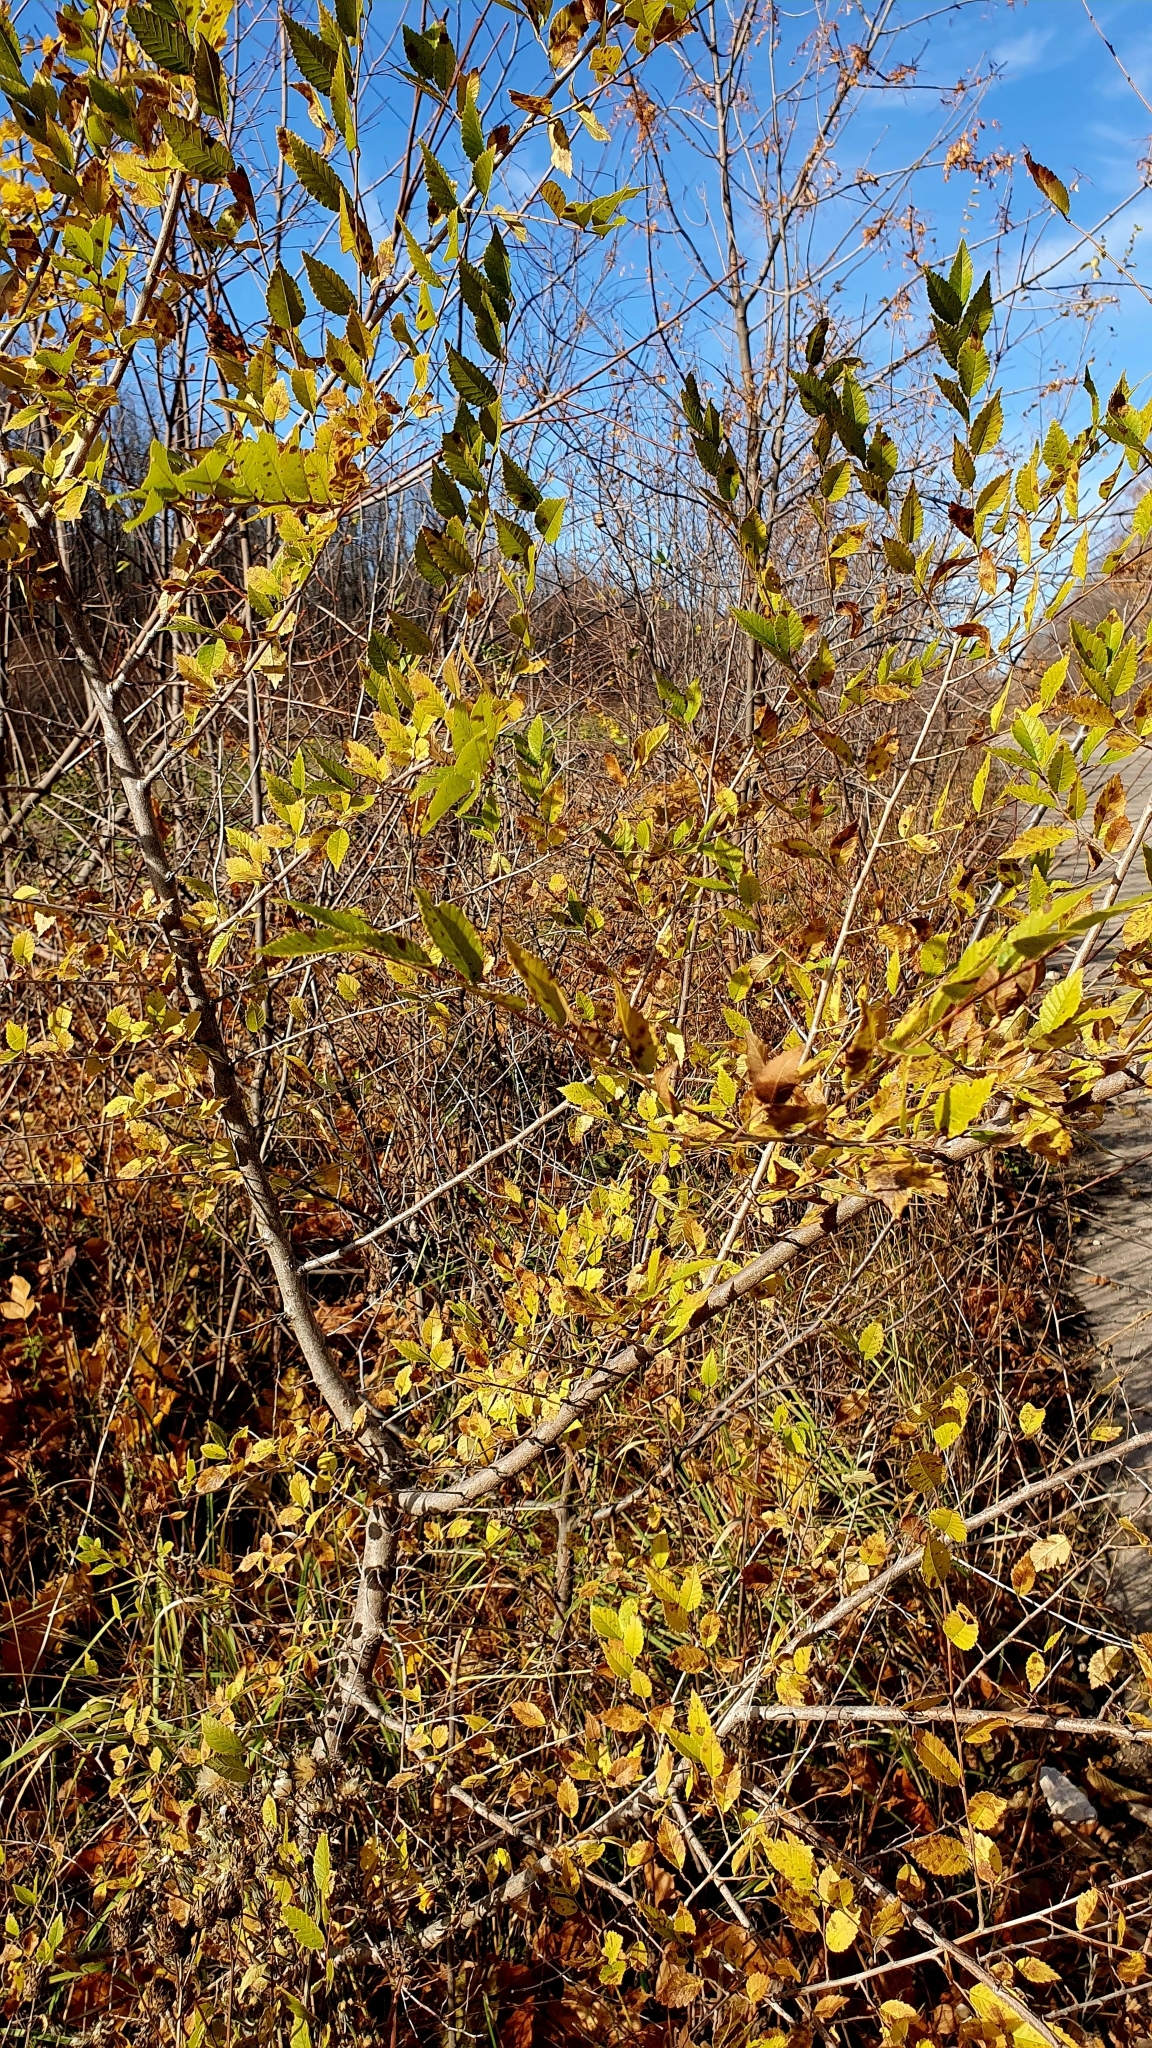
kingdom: Plantae
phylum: Tracheophyta
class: Magnoliopsida
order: Rosales
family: Ulmaceae
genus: Ulmus
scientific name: Ulmus pumila
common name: Siberian elm
